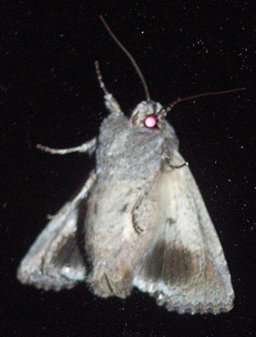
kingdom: Animalia
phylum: Arthropoda
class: Insecta
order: Lepidoptera
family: Noctuidae
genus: Dasygaster
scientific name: Dasygaster padockina
